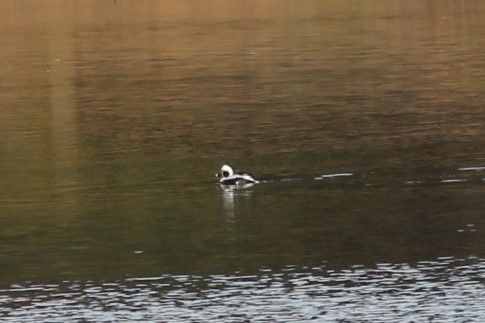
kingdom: Animalia
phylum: Chordata
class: Aves
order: Anseriformes
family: Anatidae
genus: Clangula
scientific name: Clangula hyemalis
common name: Long-tailed duck
